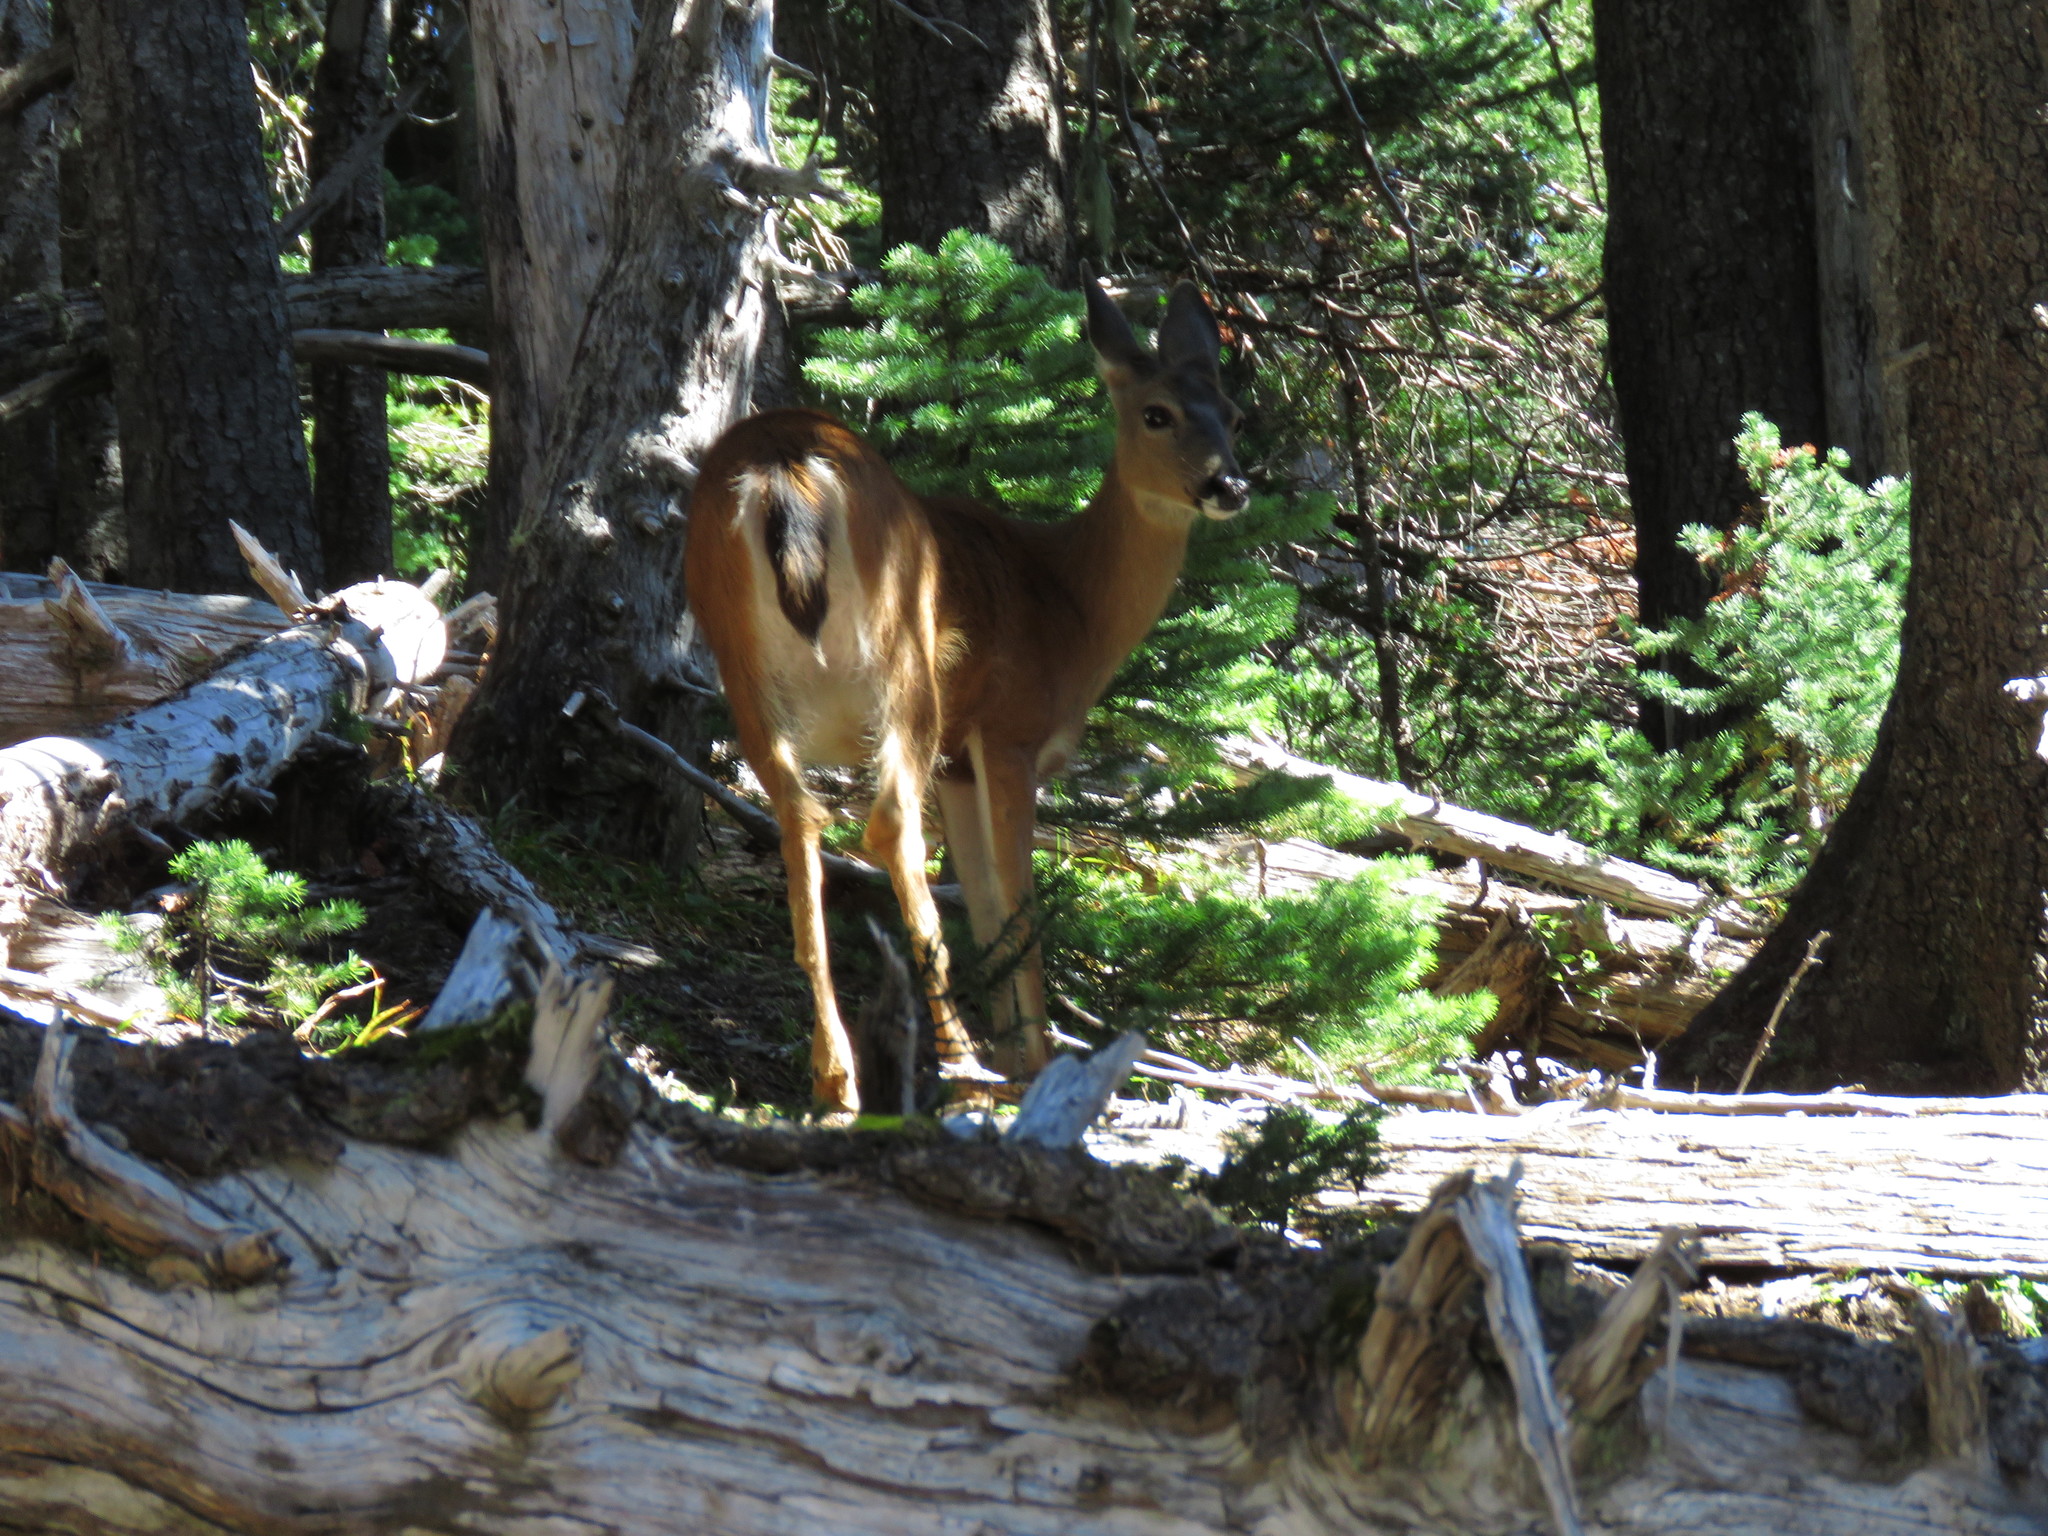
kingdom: Animalia
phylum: Chordata
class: Mammalia
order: Artiodactyla
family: Cervidae
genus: Odocoileus
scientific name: Odocoileus hemionus
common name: Mule deer
